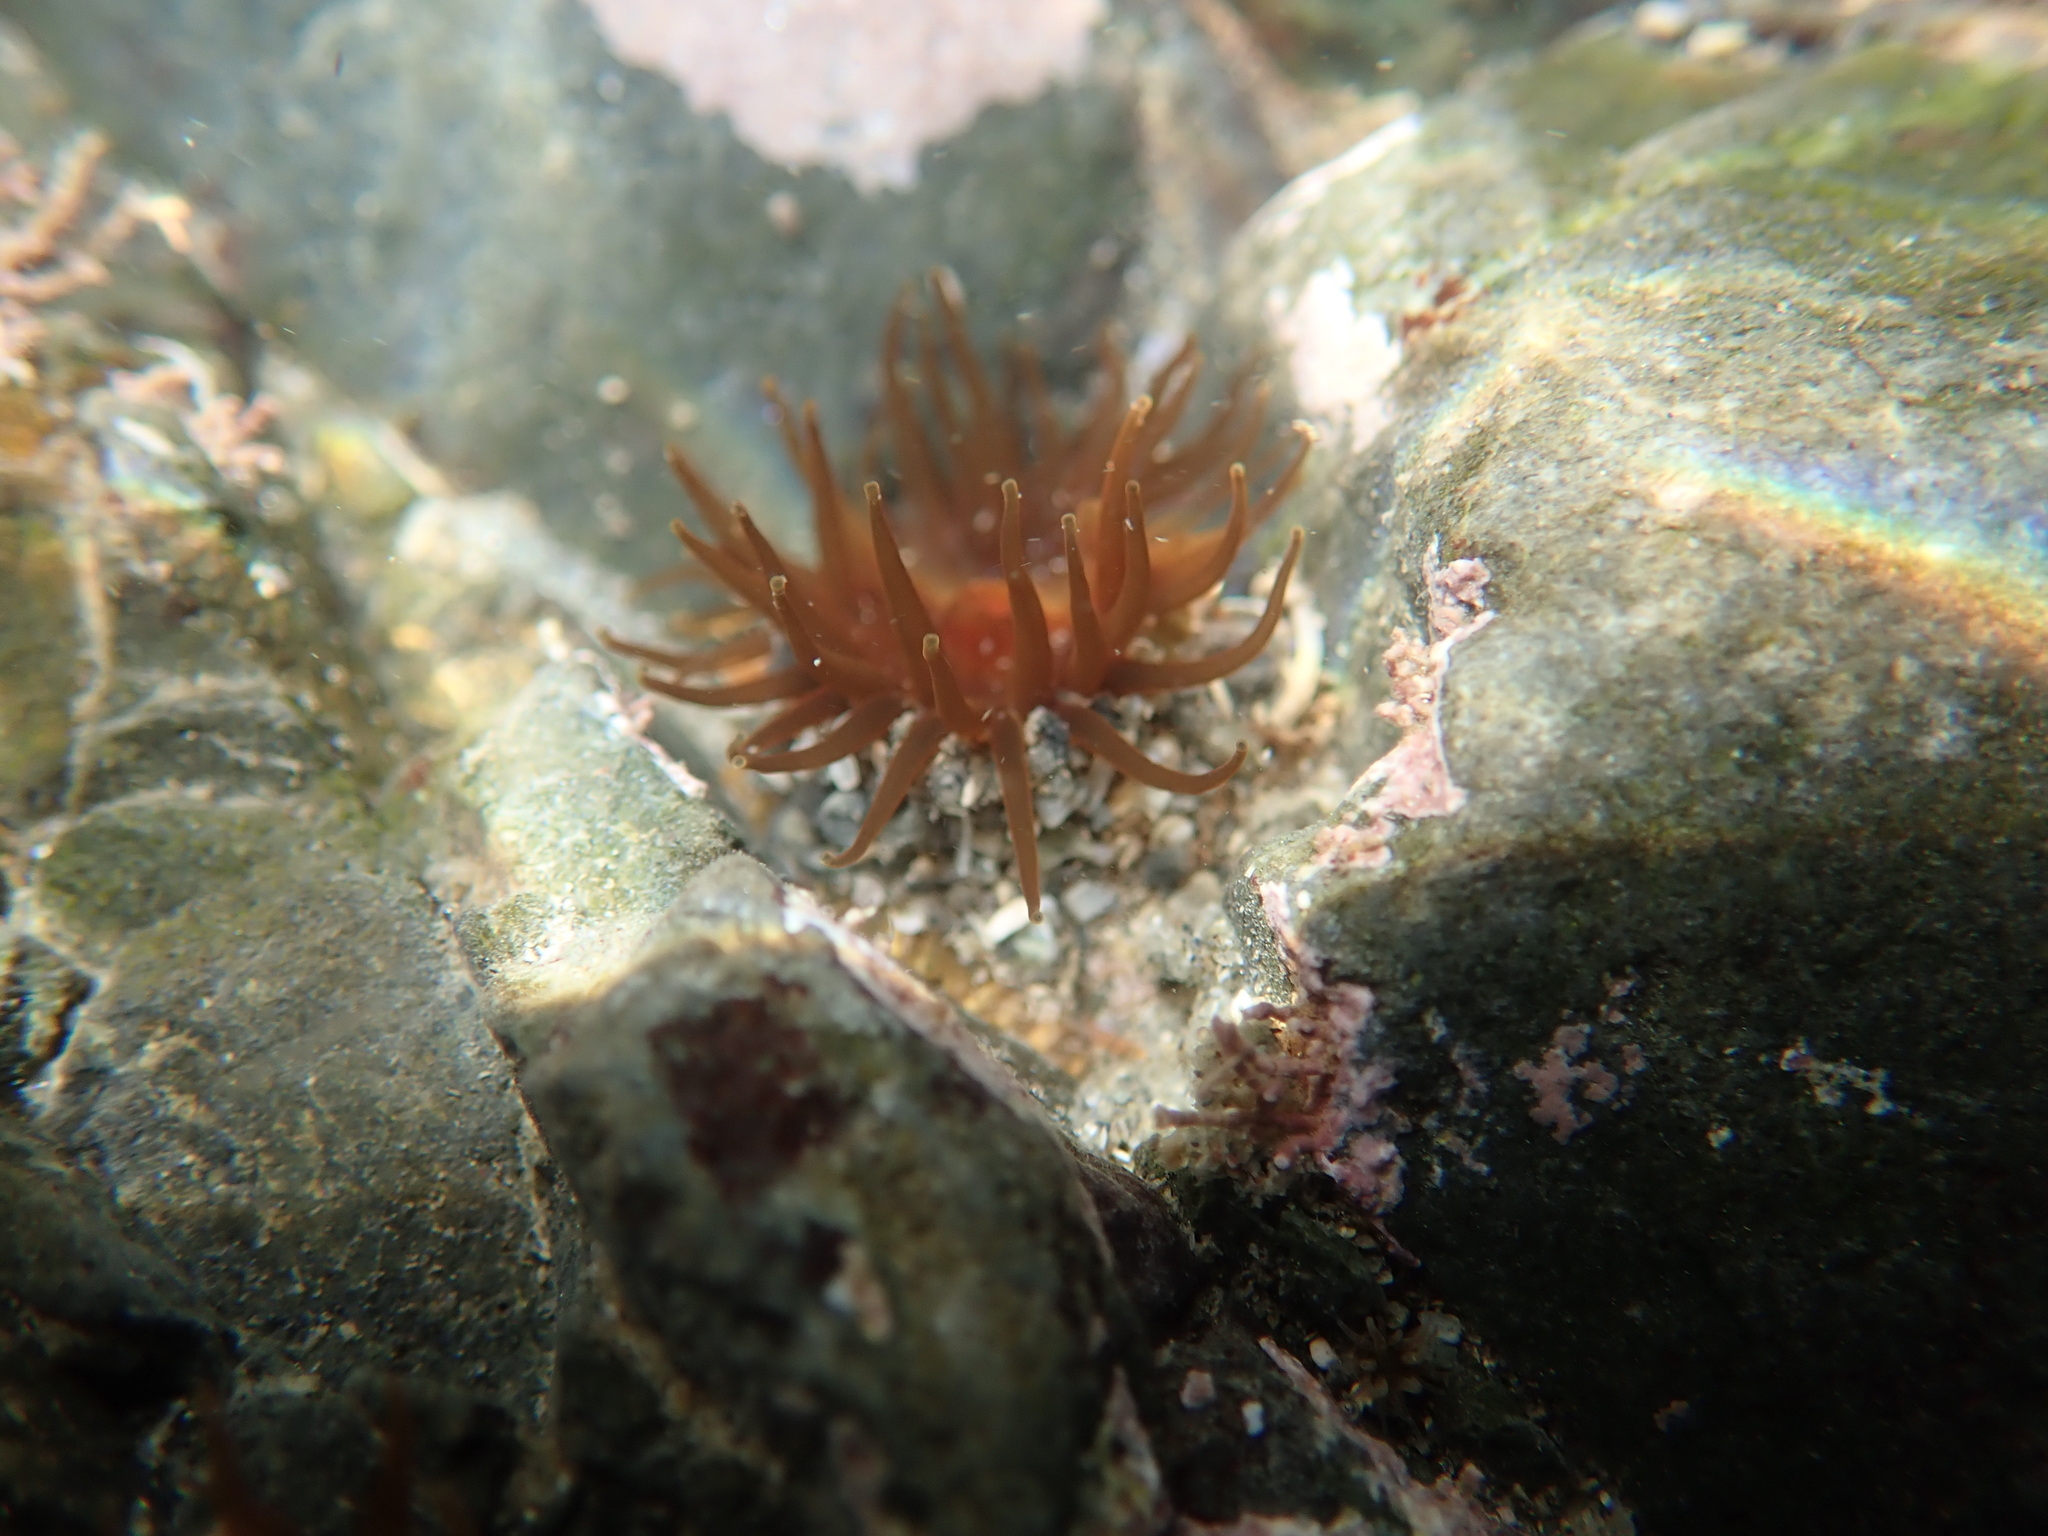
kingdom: Animalia
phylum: Cnidaria
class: Anthozoa
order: Actiniaria
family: Actiniidae
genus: Isactinia
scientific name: Isactinia olivacea
